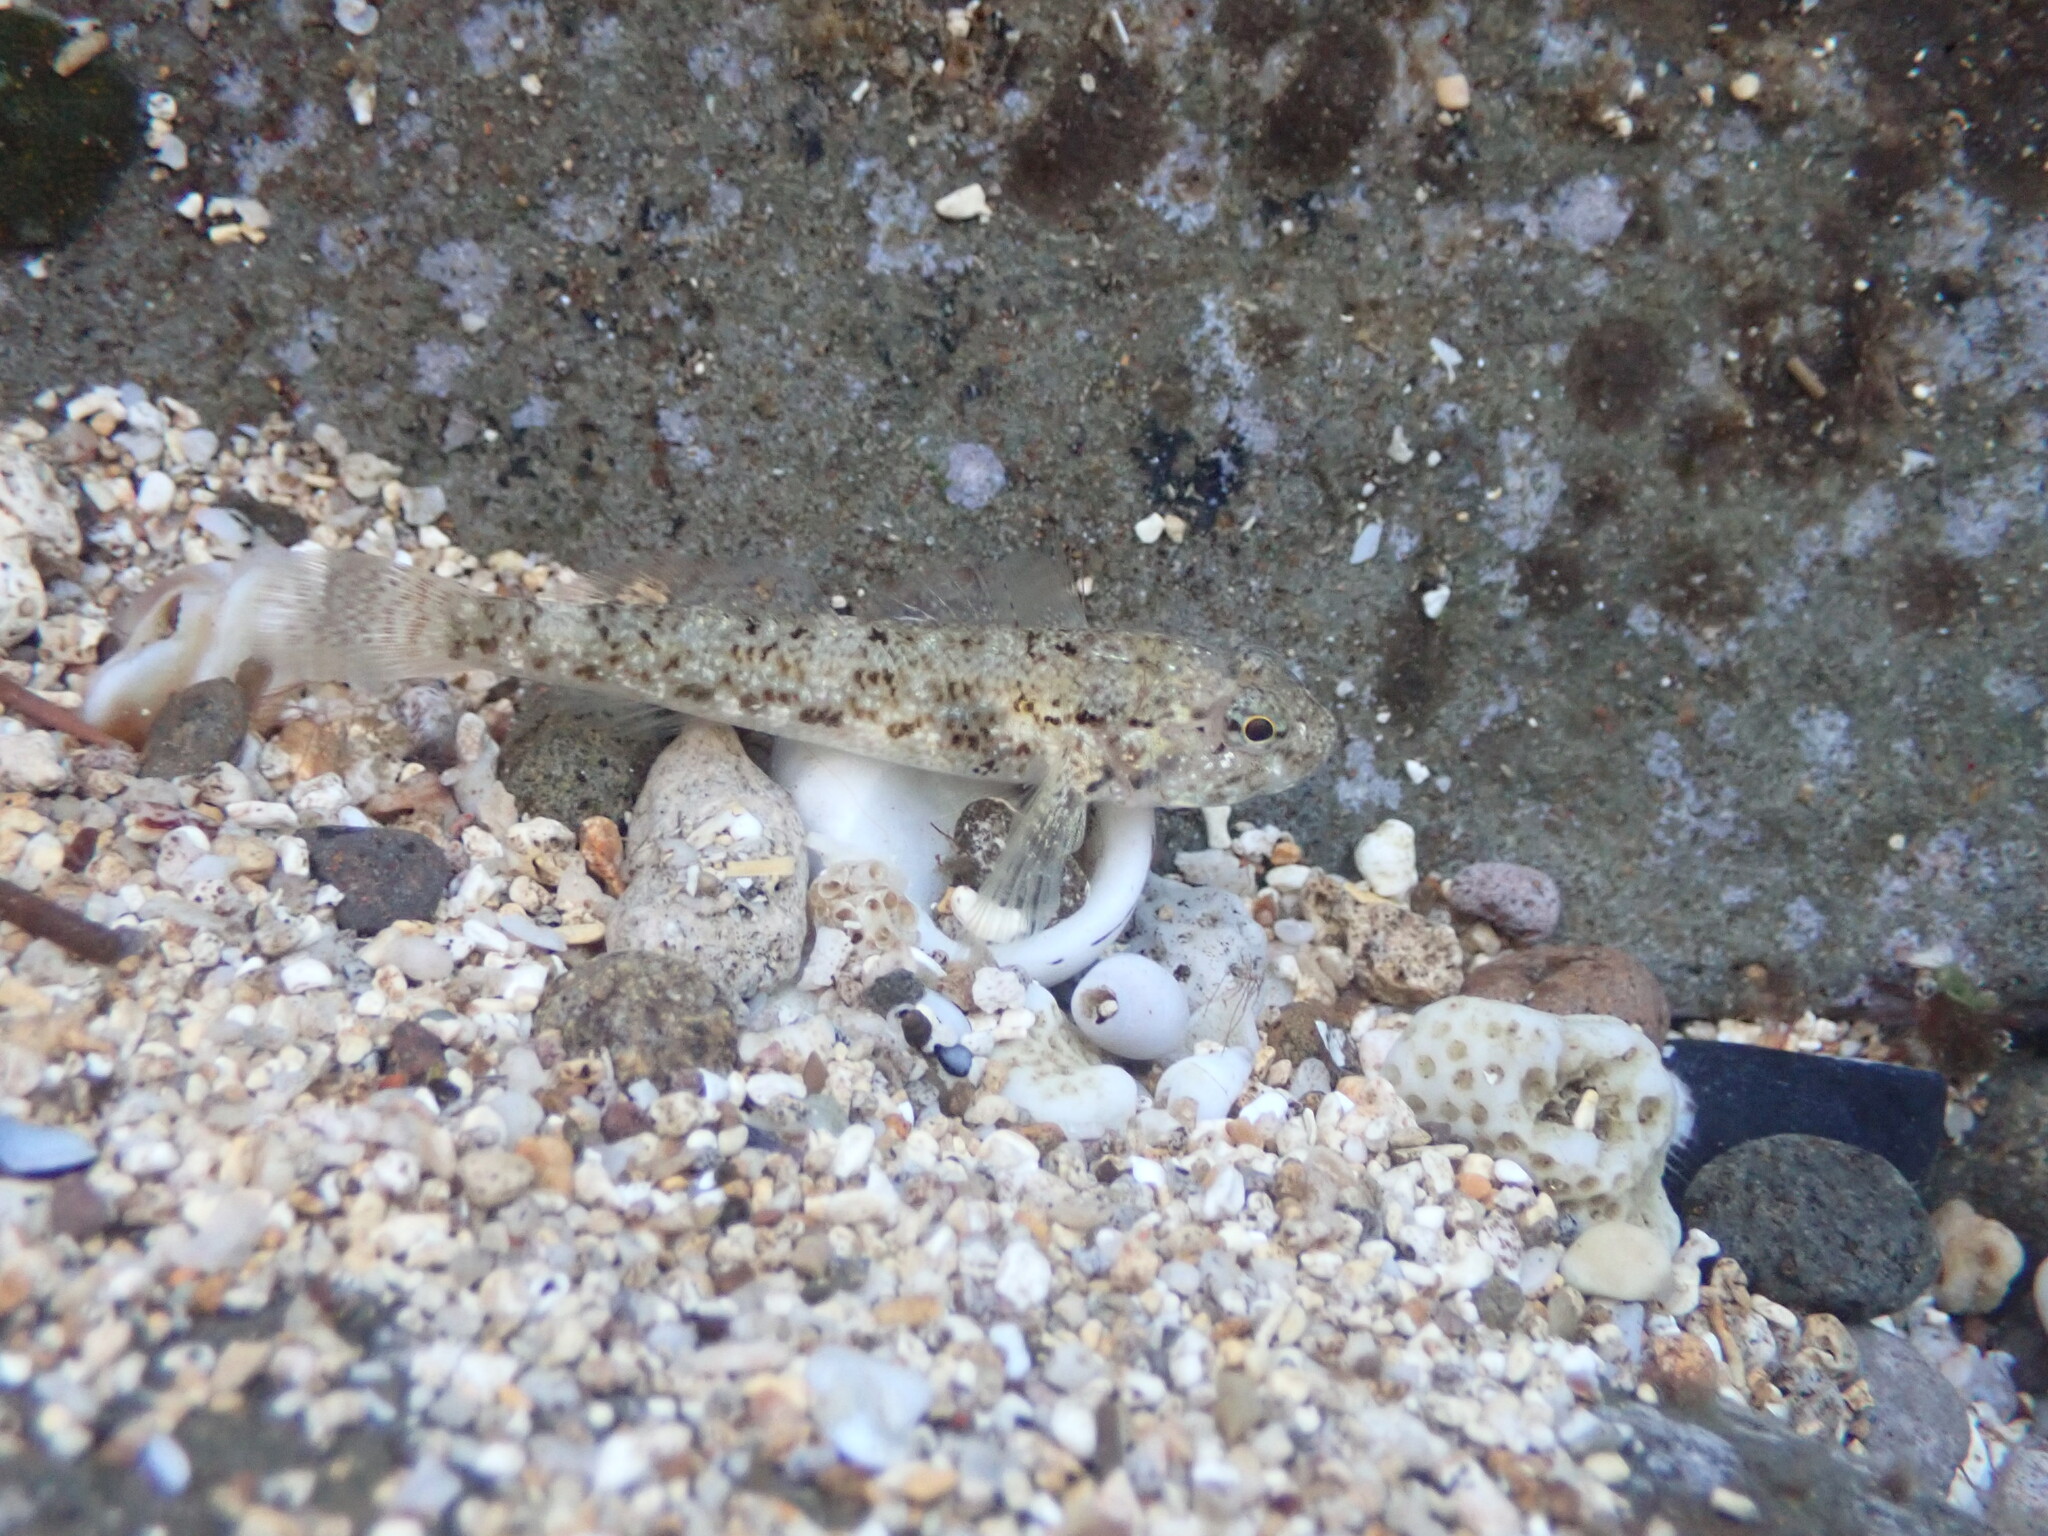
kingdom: Animalia
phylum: Chordata
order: Perciformes
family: Gobiidae
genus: Bathygobius
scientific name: Bathygobius cocosensis
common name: Cocos frillgoby
